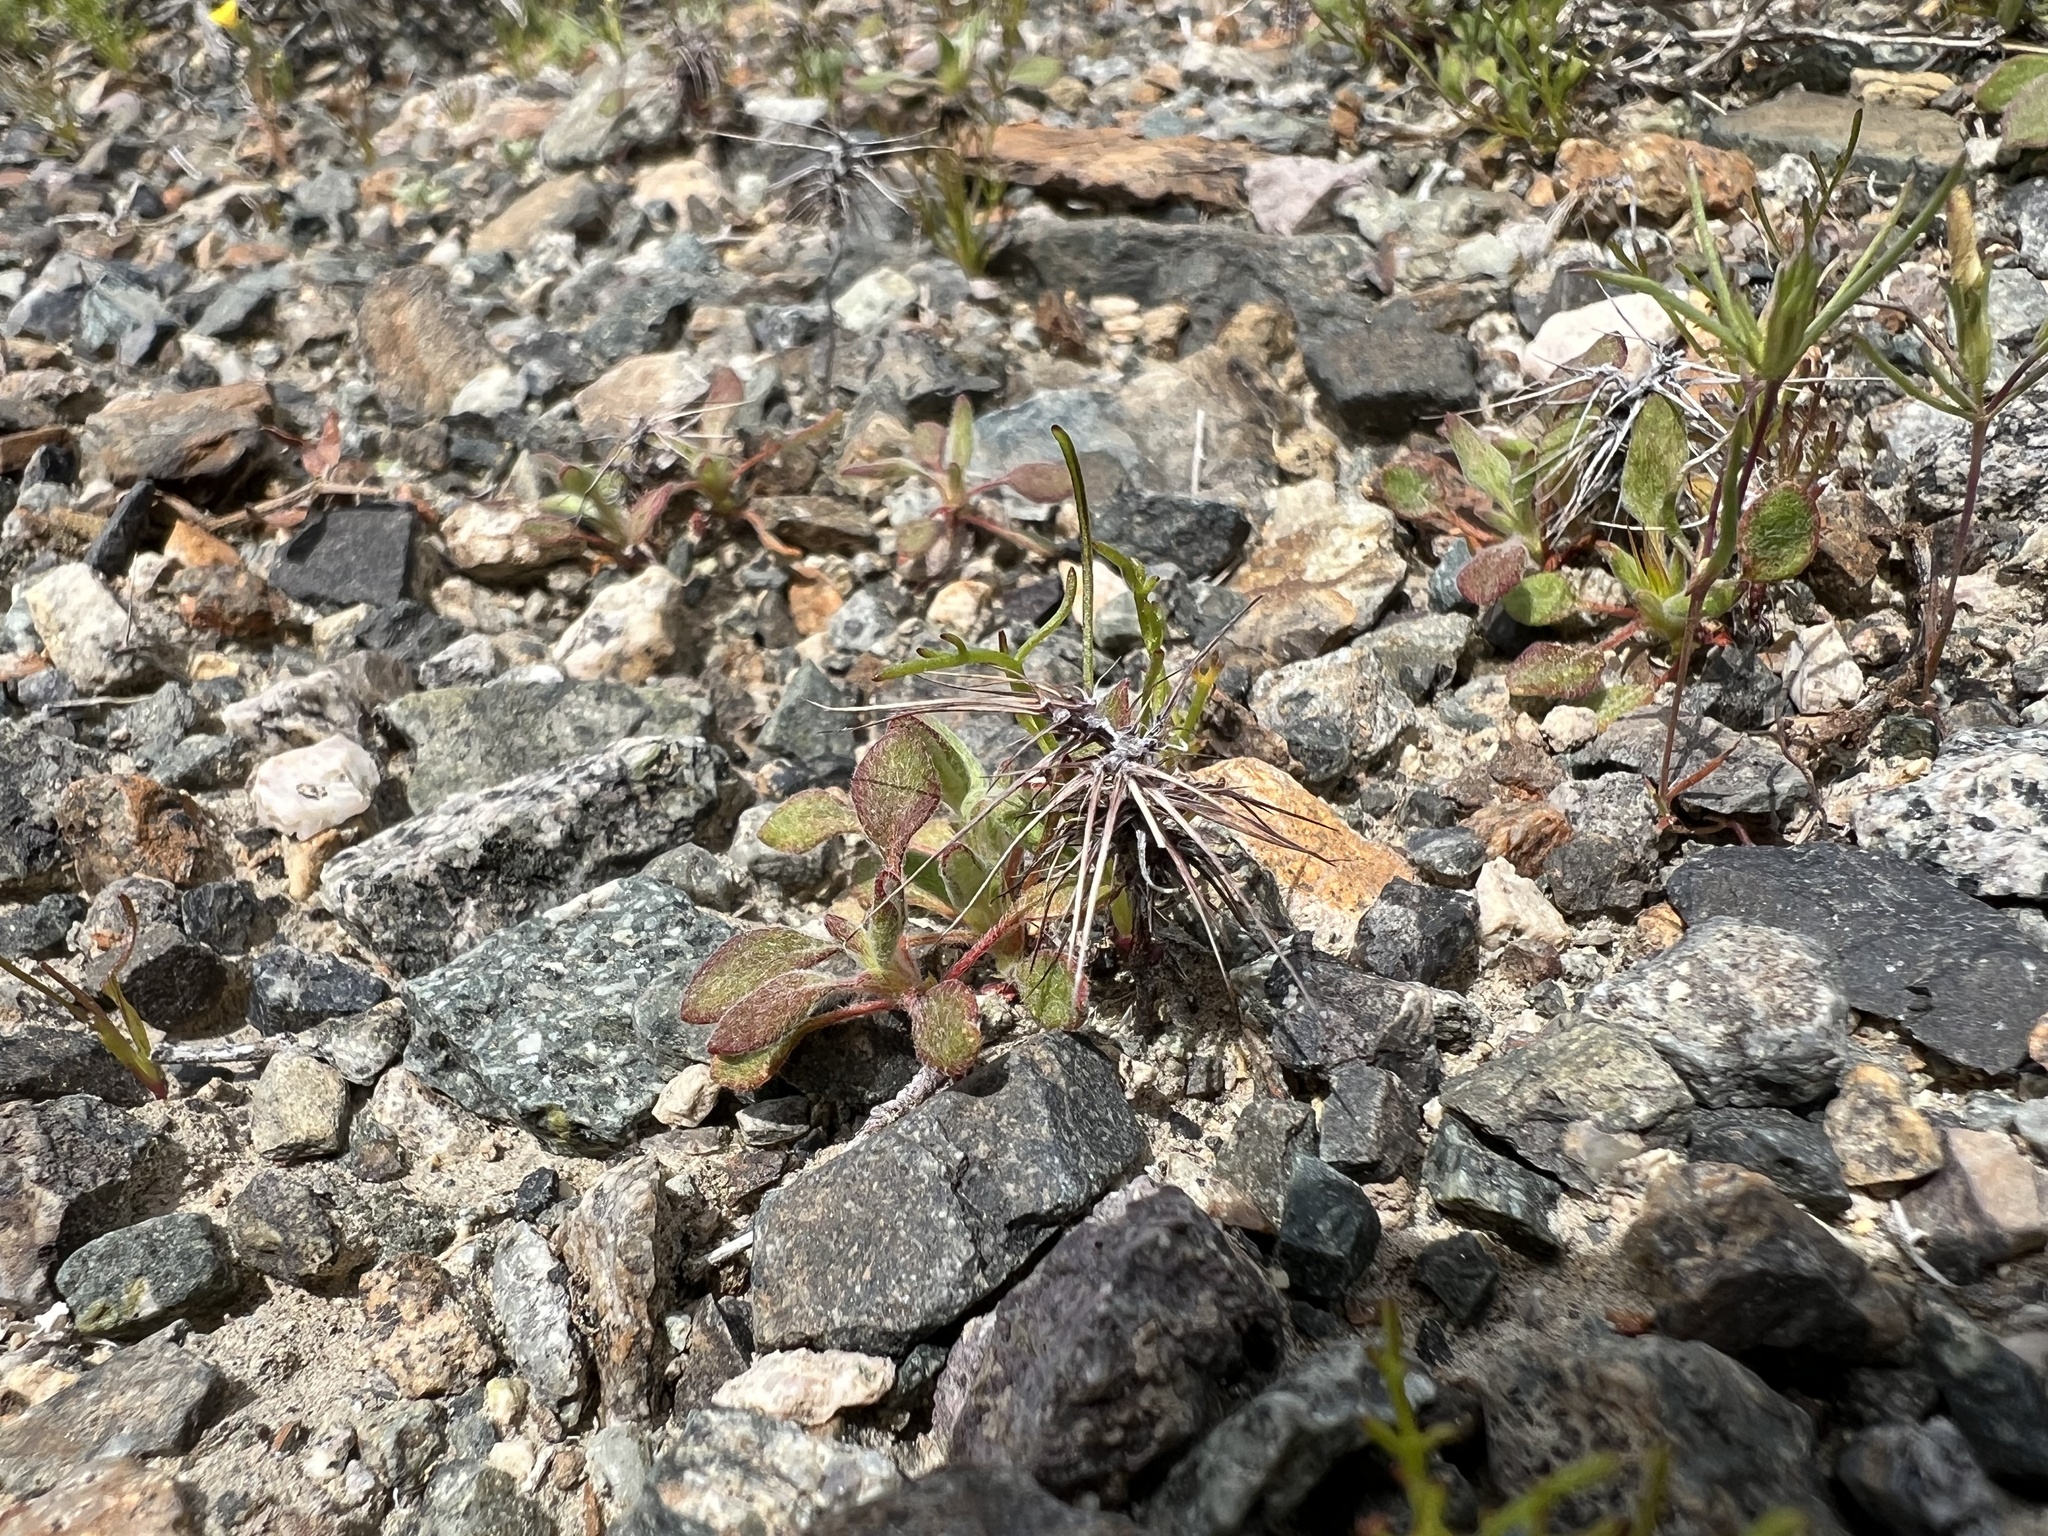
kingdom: Plantae
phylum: Tracheophyta
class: Magnoliopsida
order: Caryophyllales
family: Polygonaceae
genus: Chorizanthe
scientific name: Chorizanthe rigida
